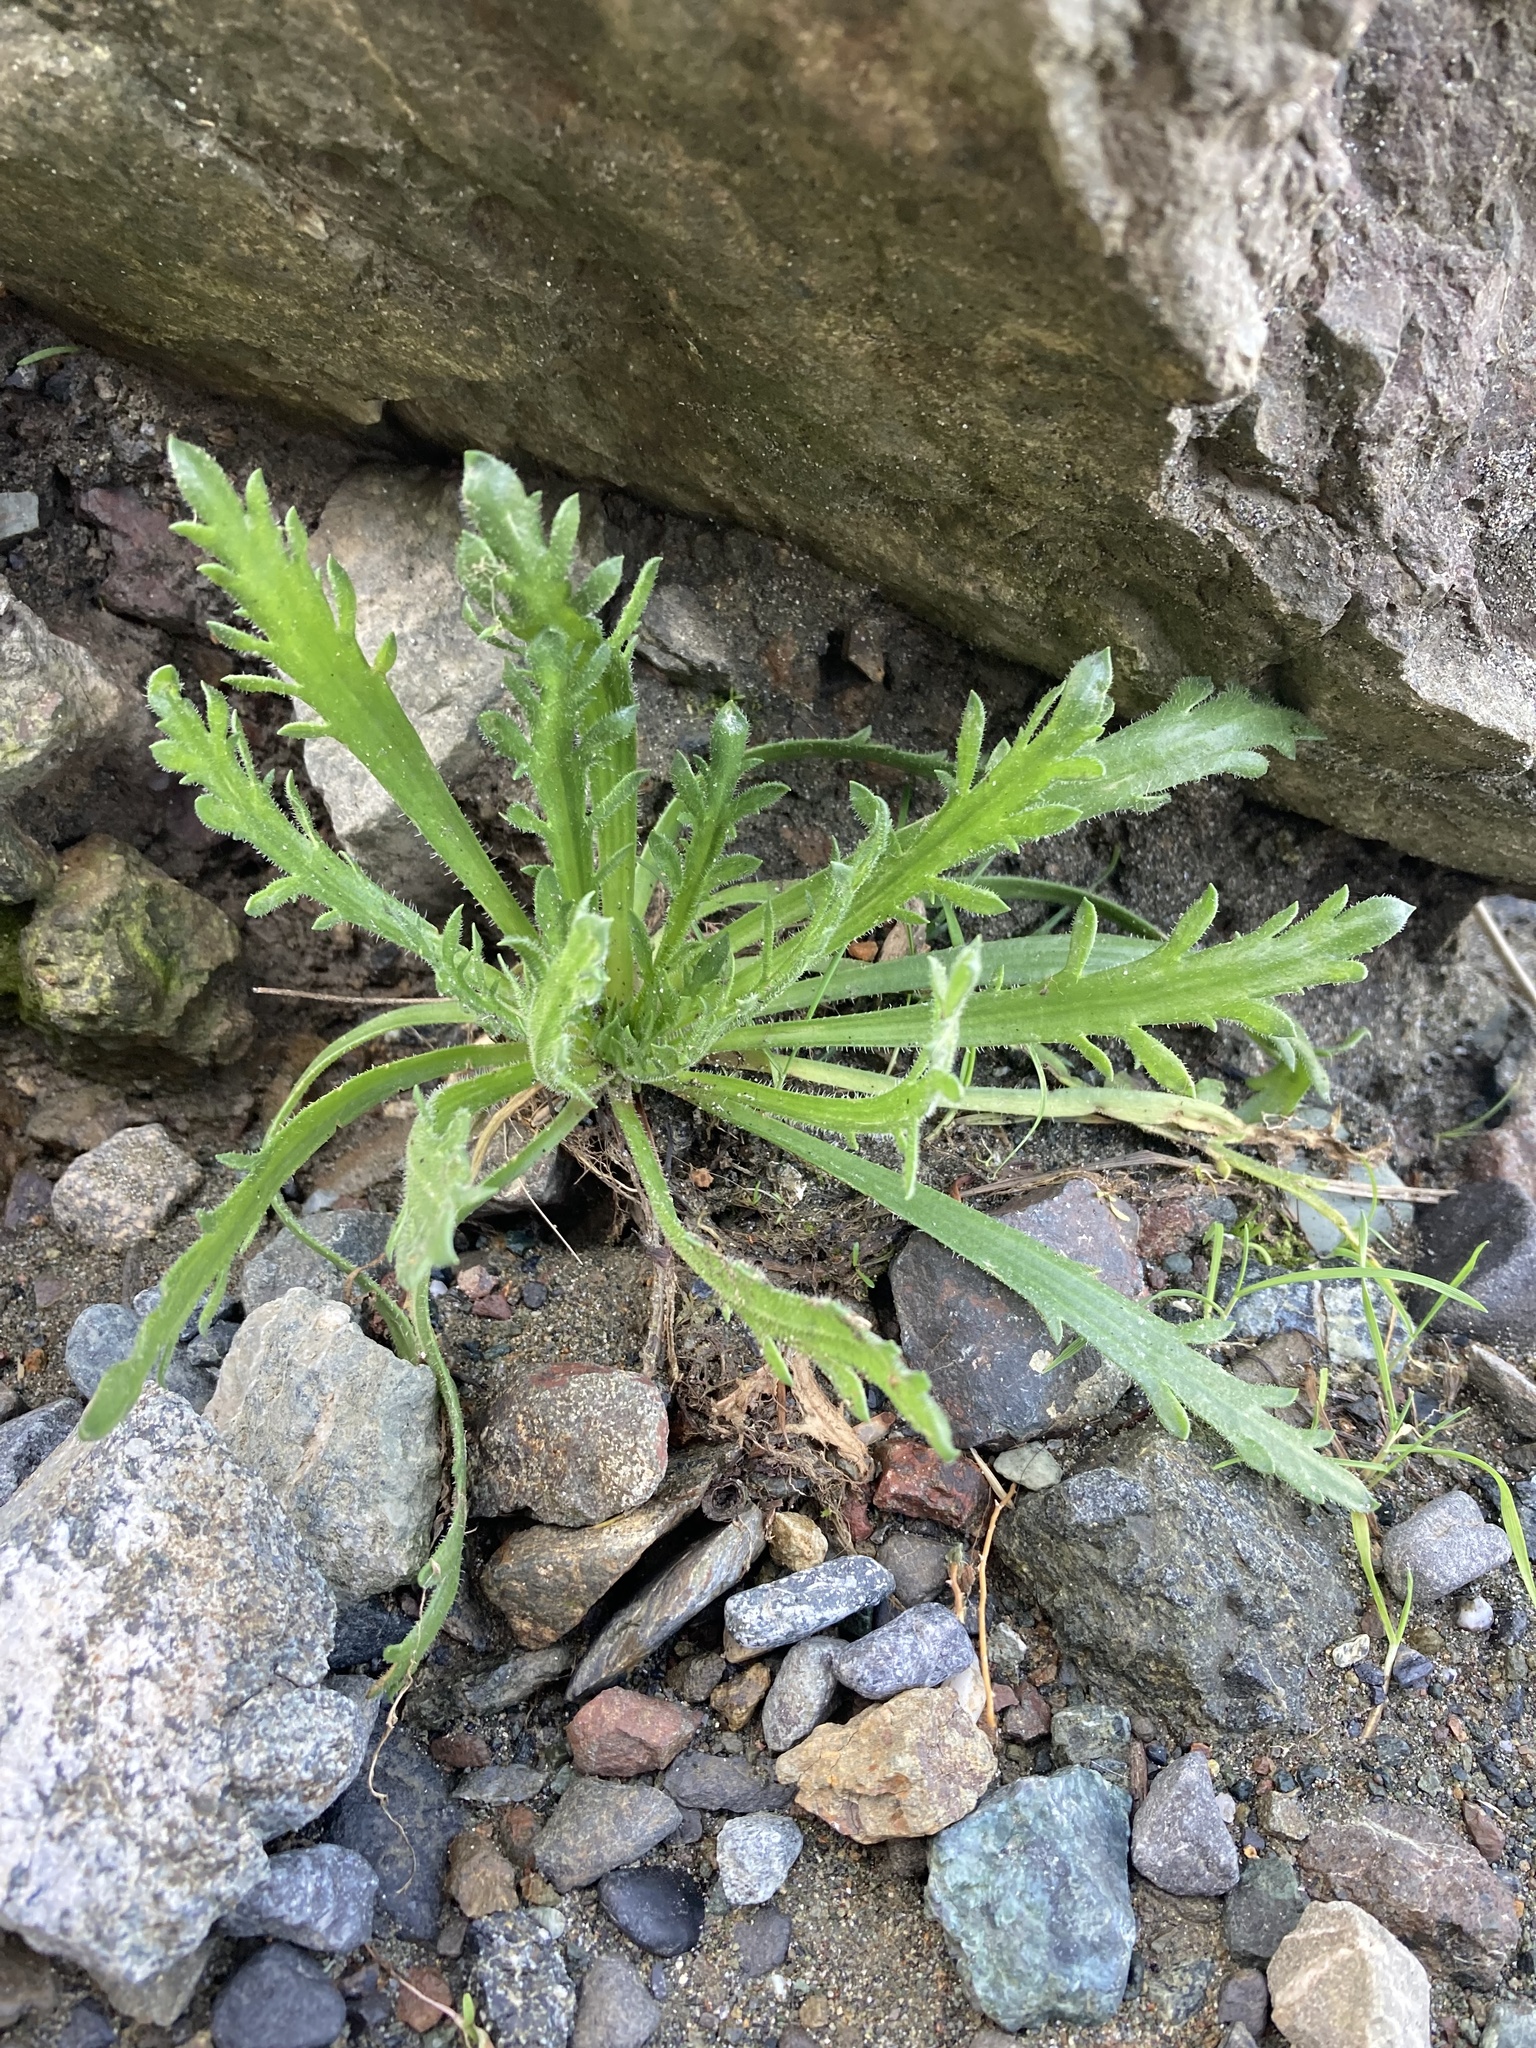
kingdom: Plantae
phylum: Tracheophyta
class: Magnoliopsida
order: Lamiales
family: Plantaginaceae
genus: Plantago
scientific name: Plantago coronopus
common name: Buck's-horn plantain
